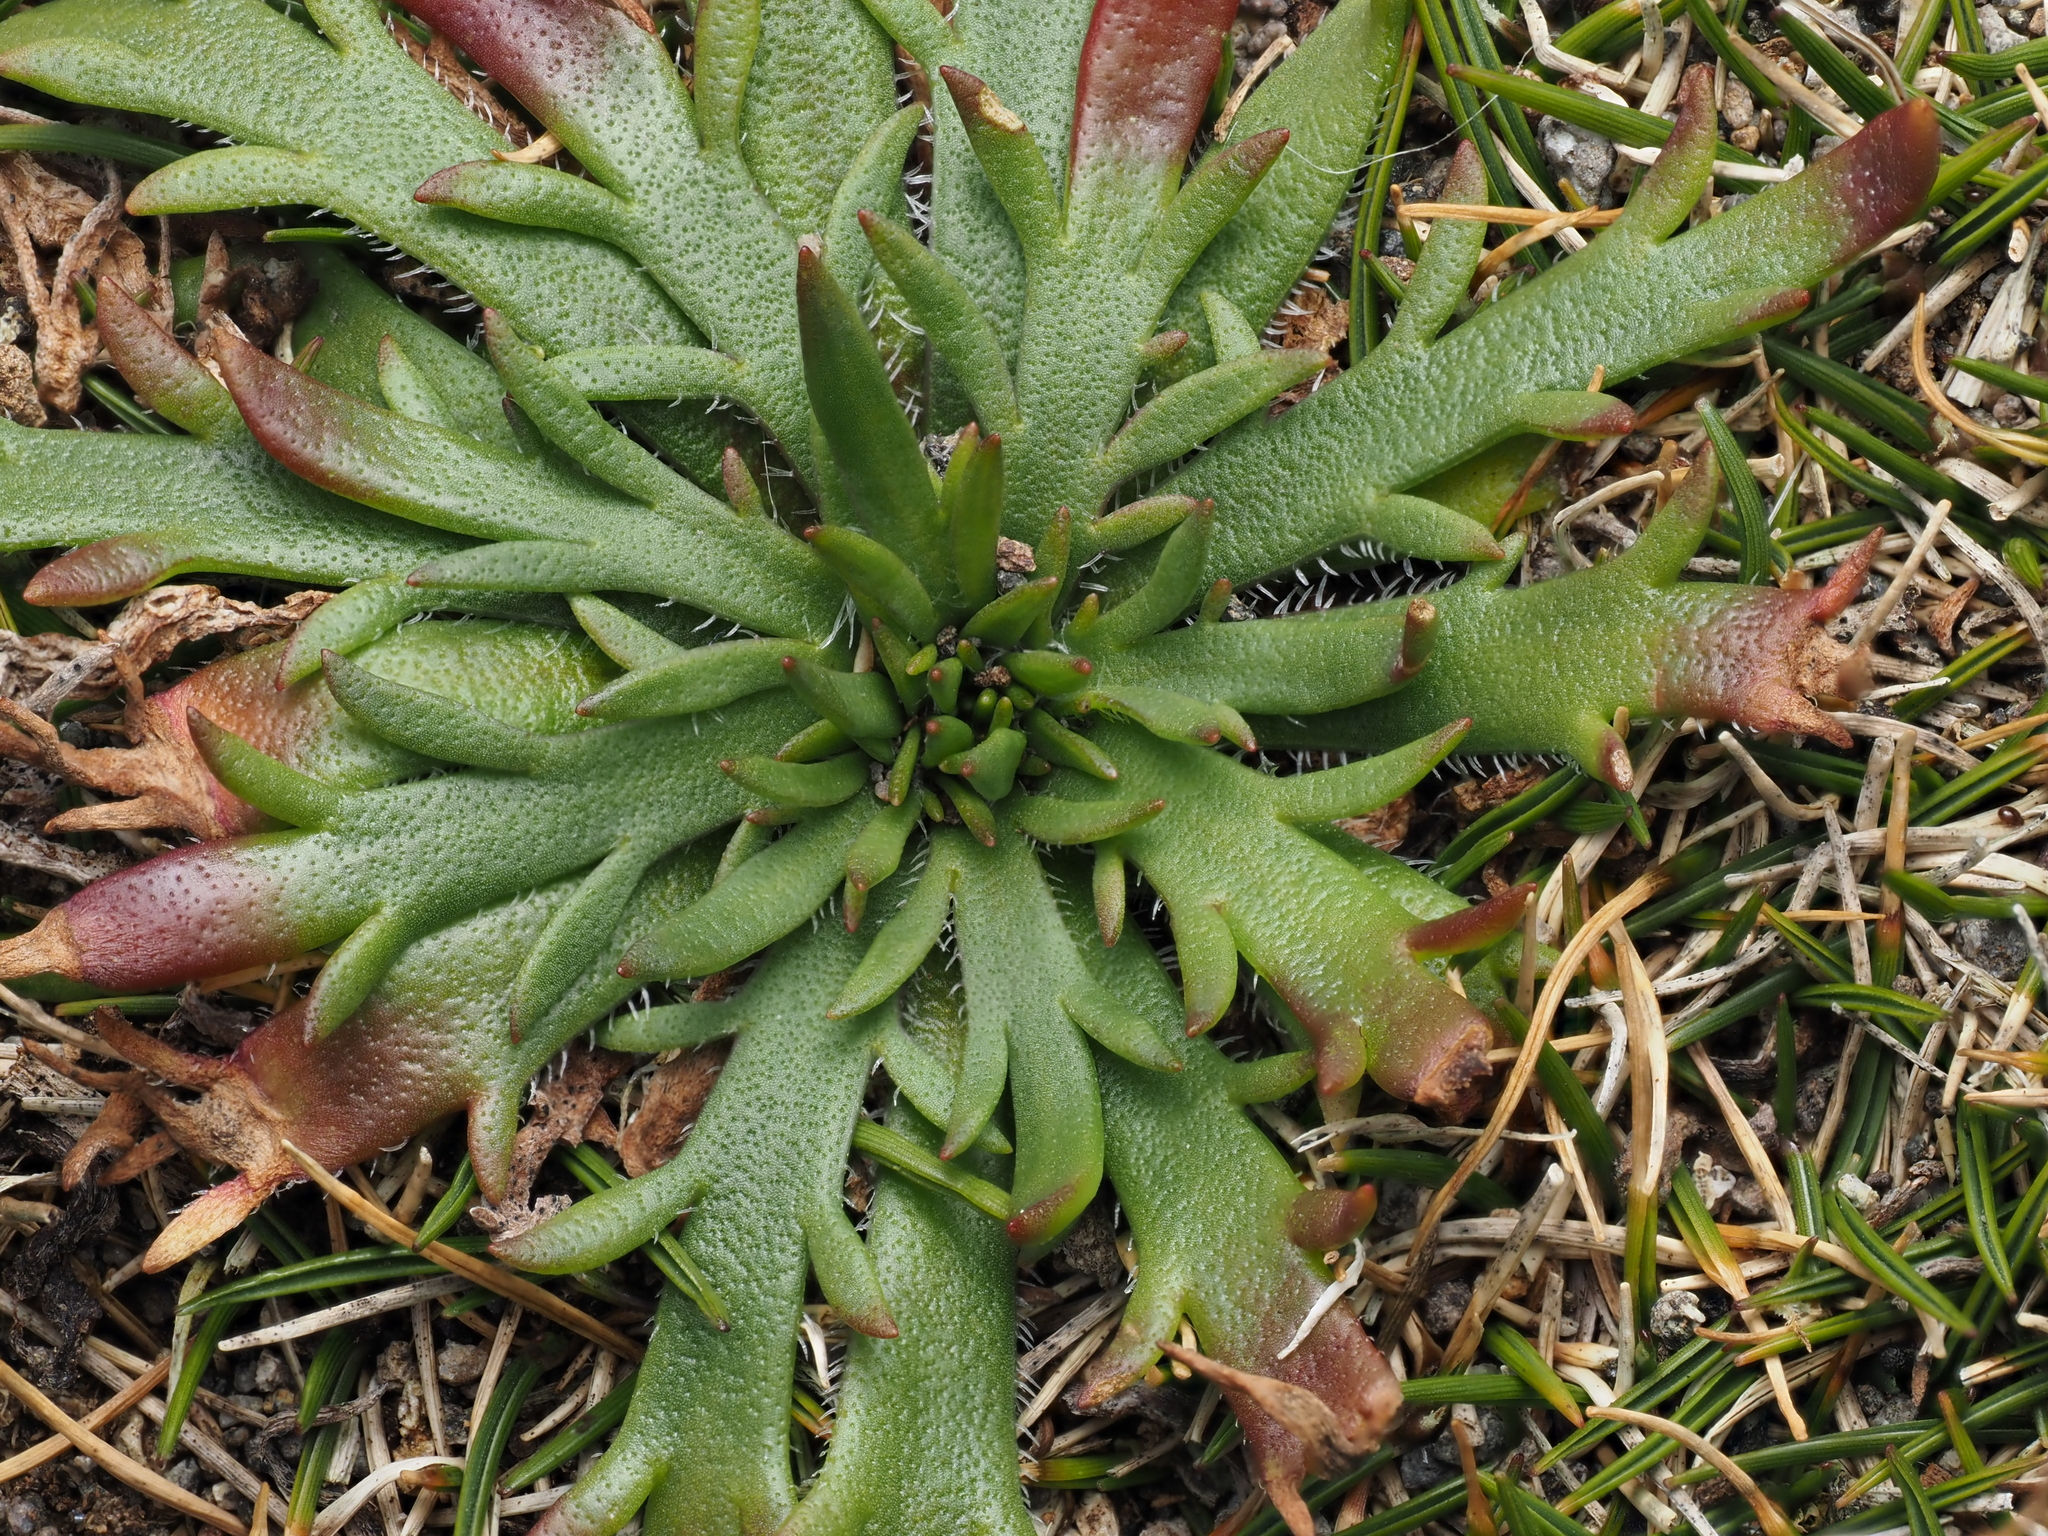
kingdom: Plantae
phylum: Tracheophyta
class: Magnoliopsida
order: Lamiales
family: Plantaginaceae
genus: Plantago
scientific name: Plantago coronopus
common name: Buck's-horn plantain
